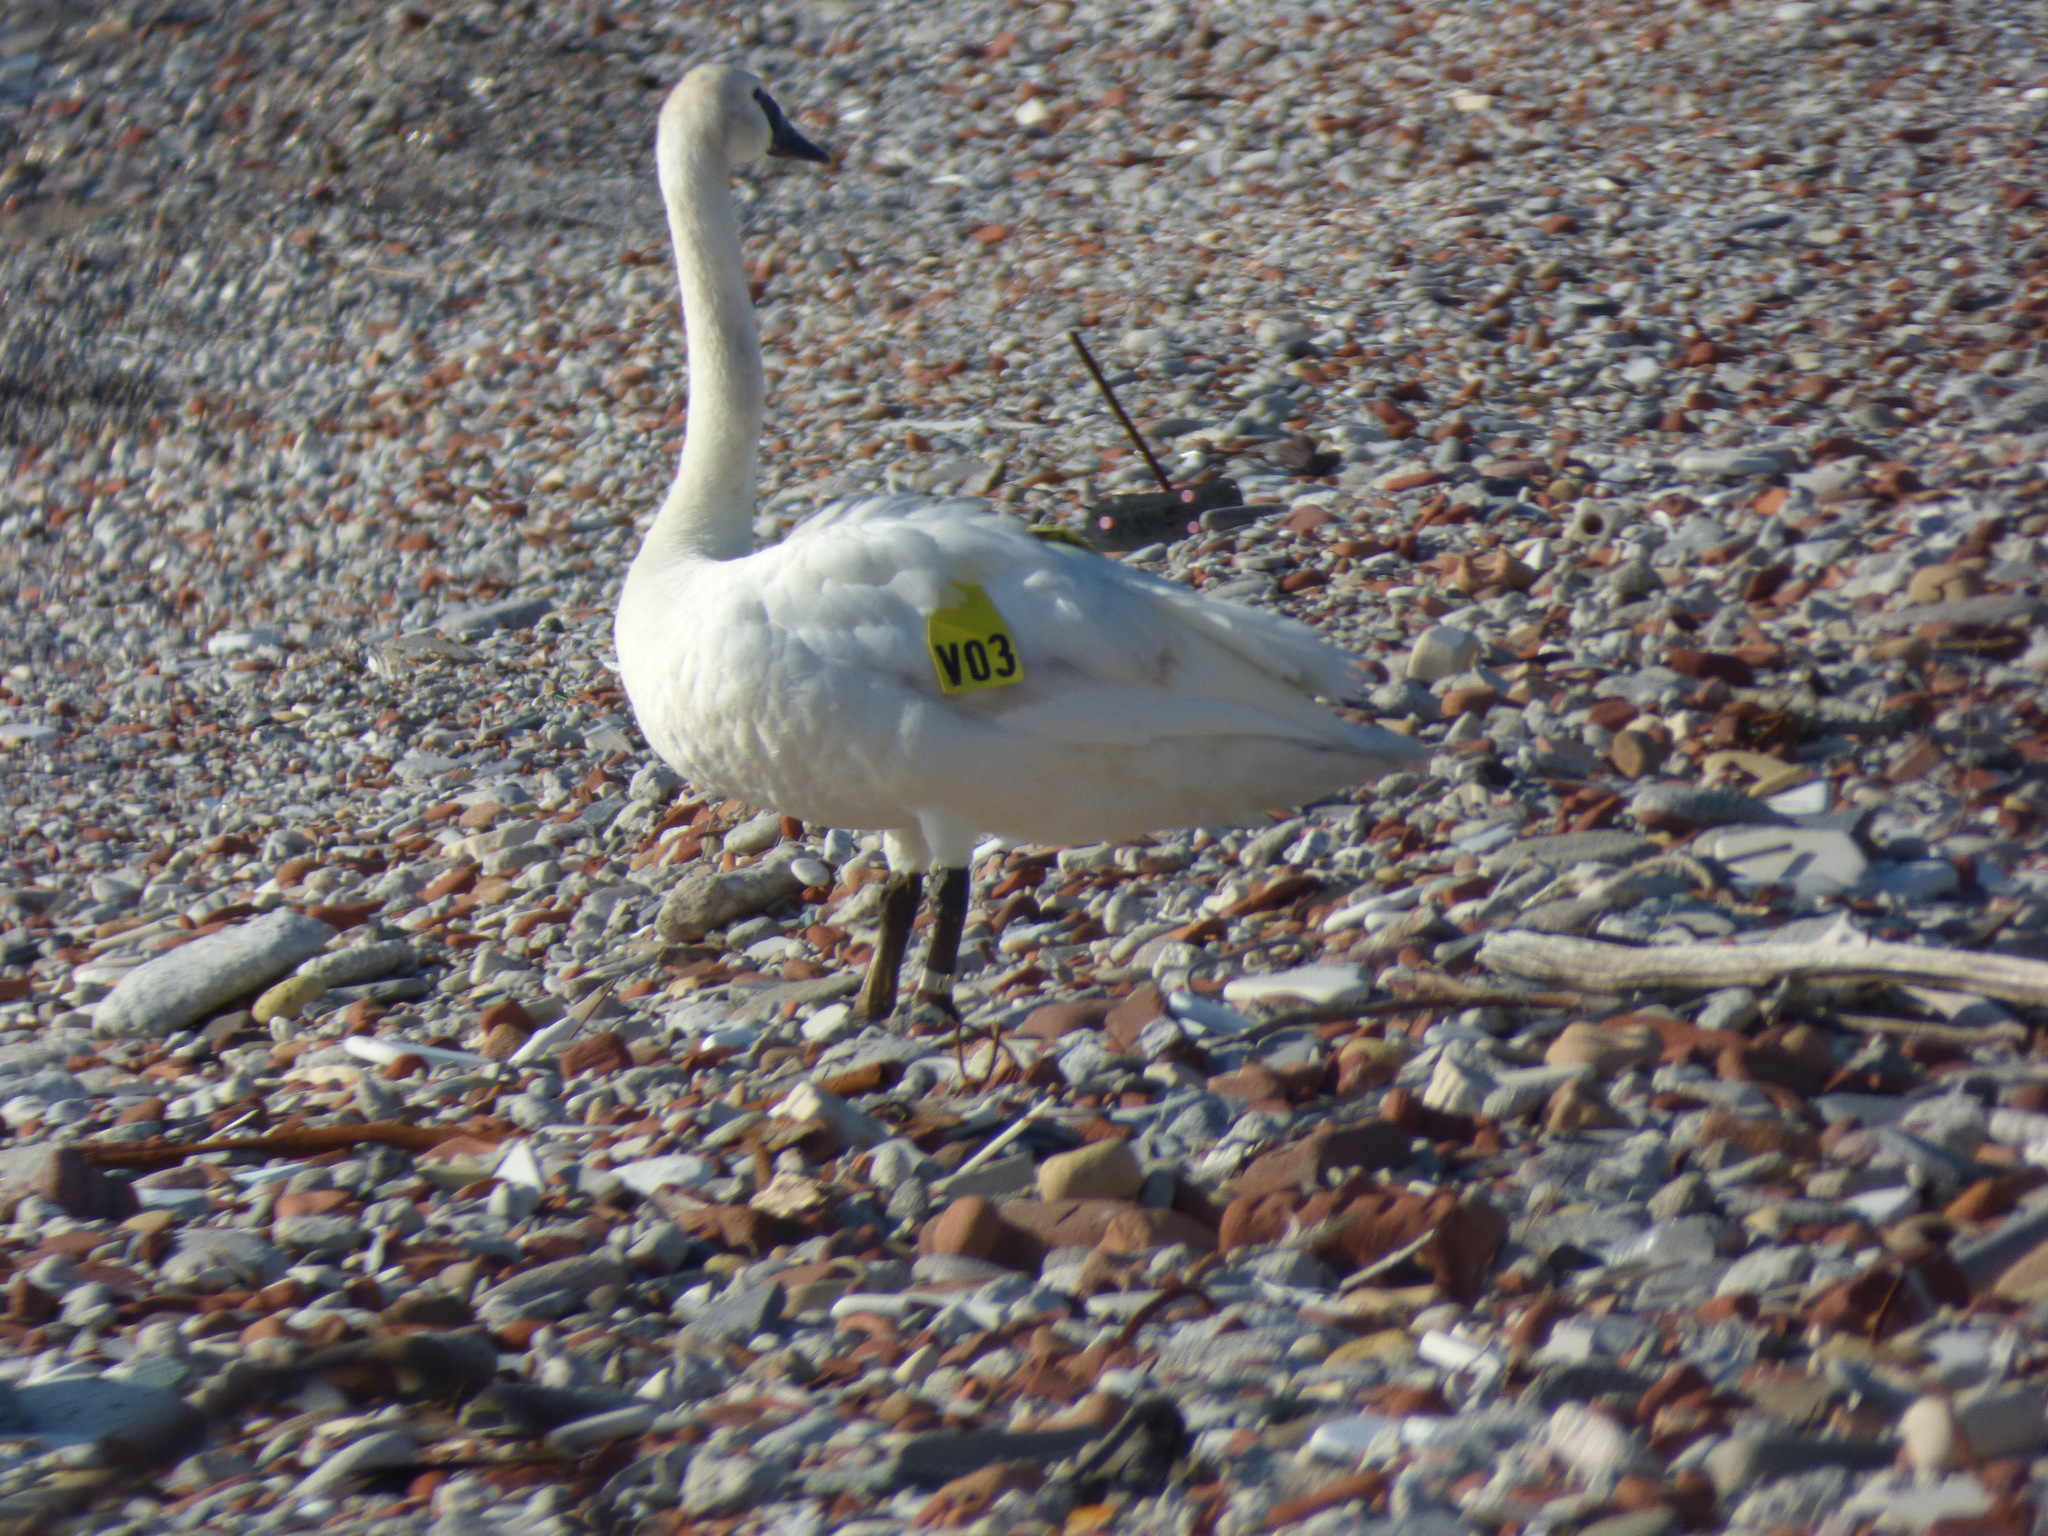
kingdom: Animalia
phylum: Chordata
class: Aves
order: Anseriformes
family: Anatidae
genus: Cygnus
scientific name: Cygnus buccinator
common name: Trumpeter swan
